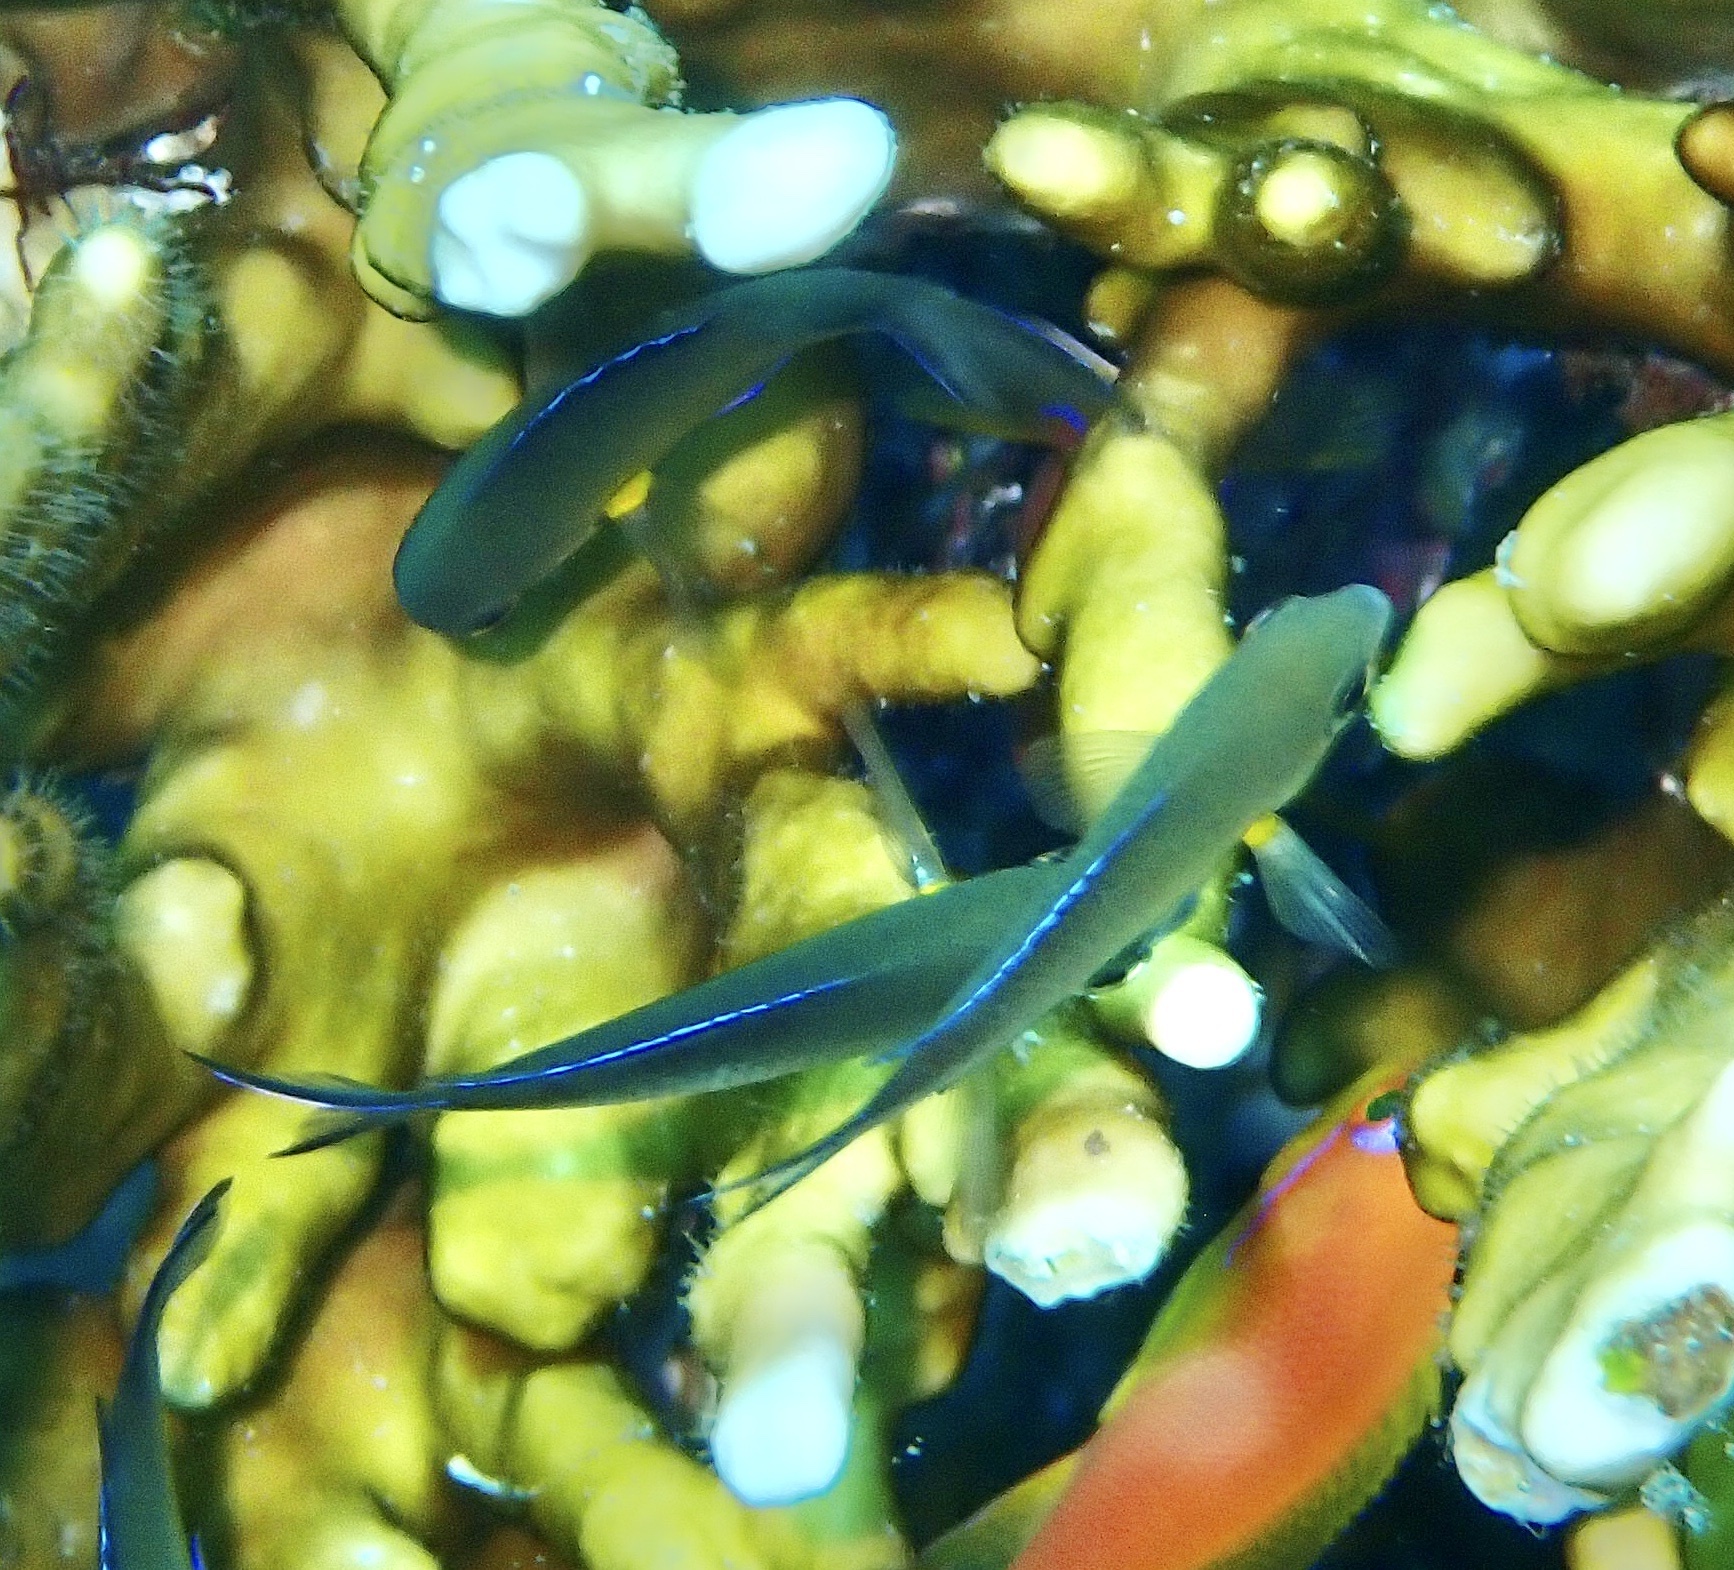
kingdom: Animalia
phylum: Chordata
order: Perciformes
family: Pomacentridae
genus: Chromis
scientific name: Chromis flavaxilla
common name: Arabian chromis
